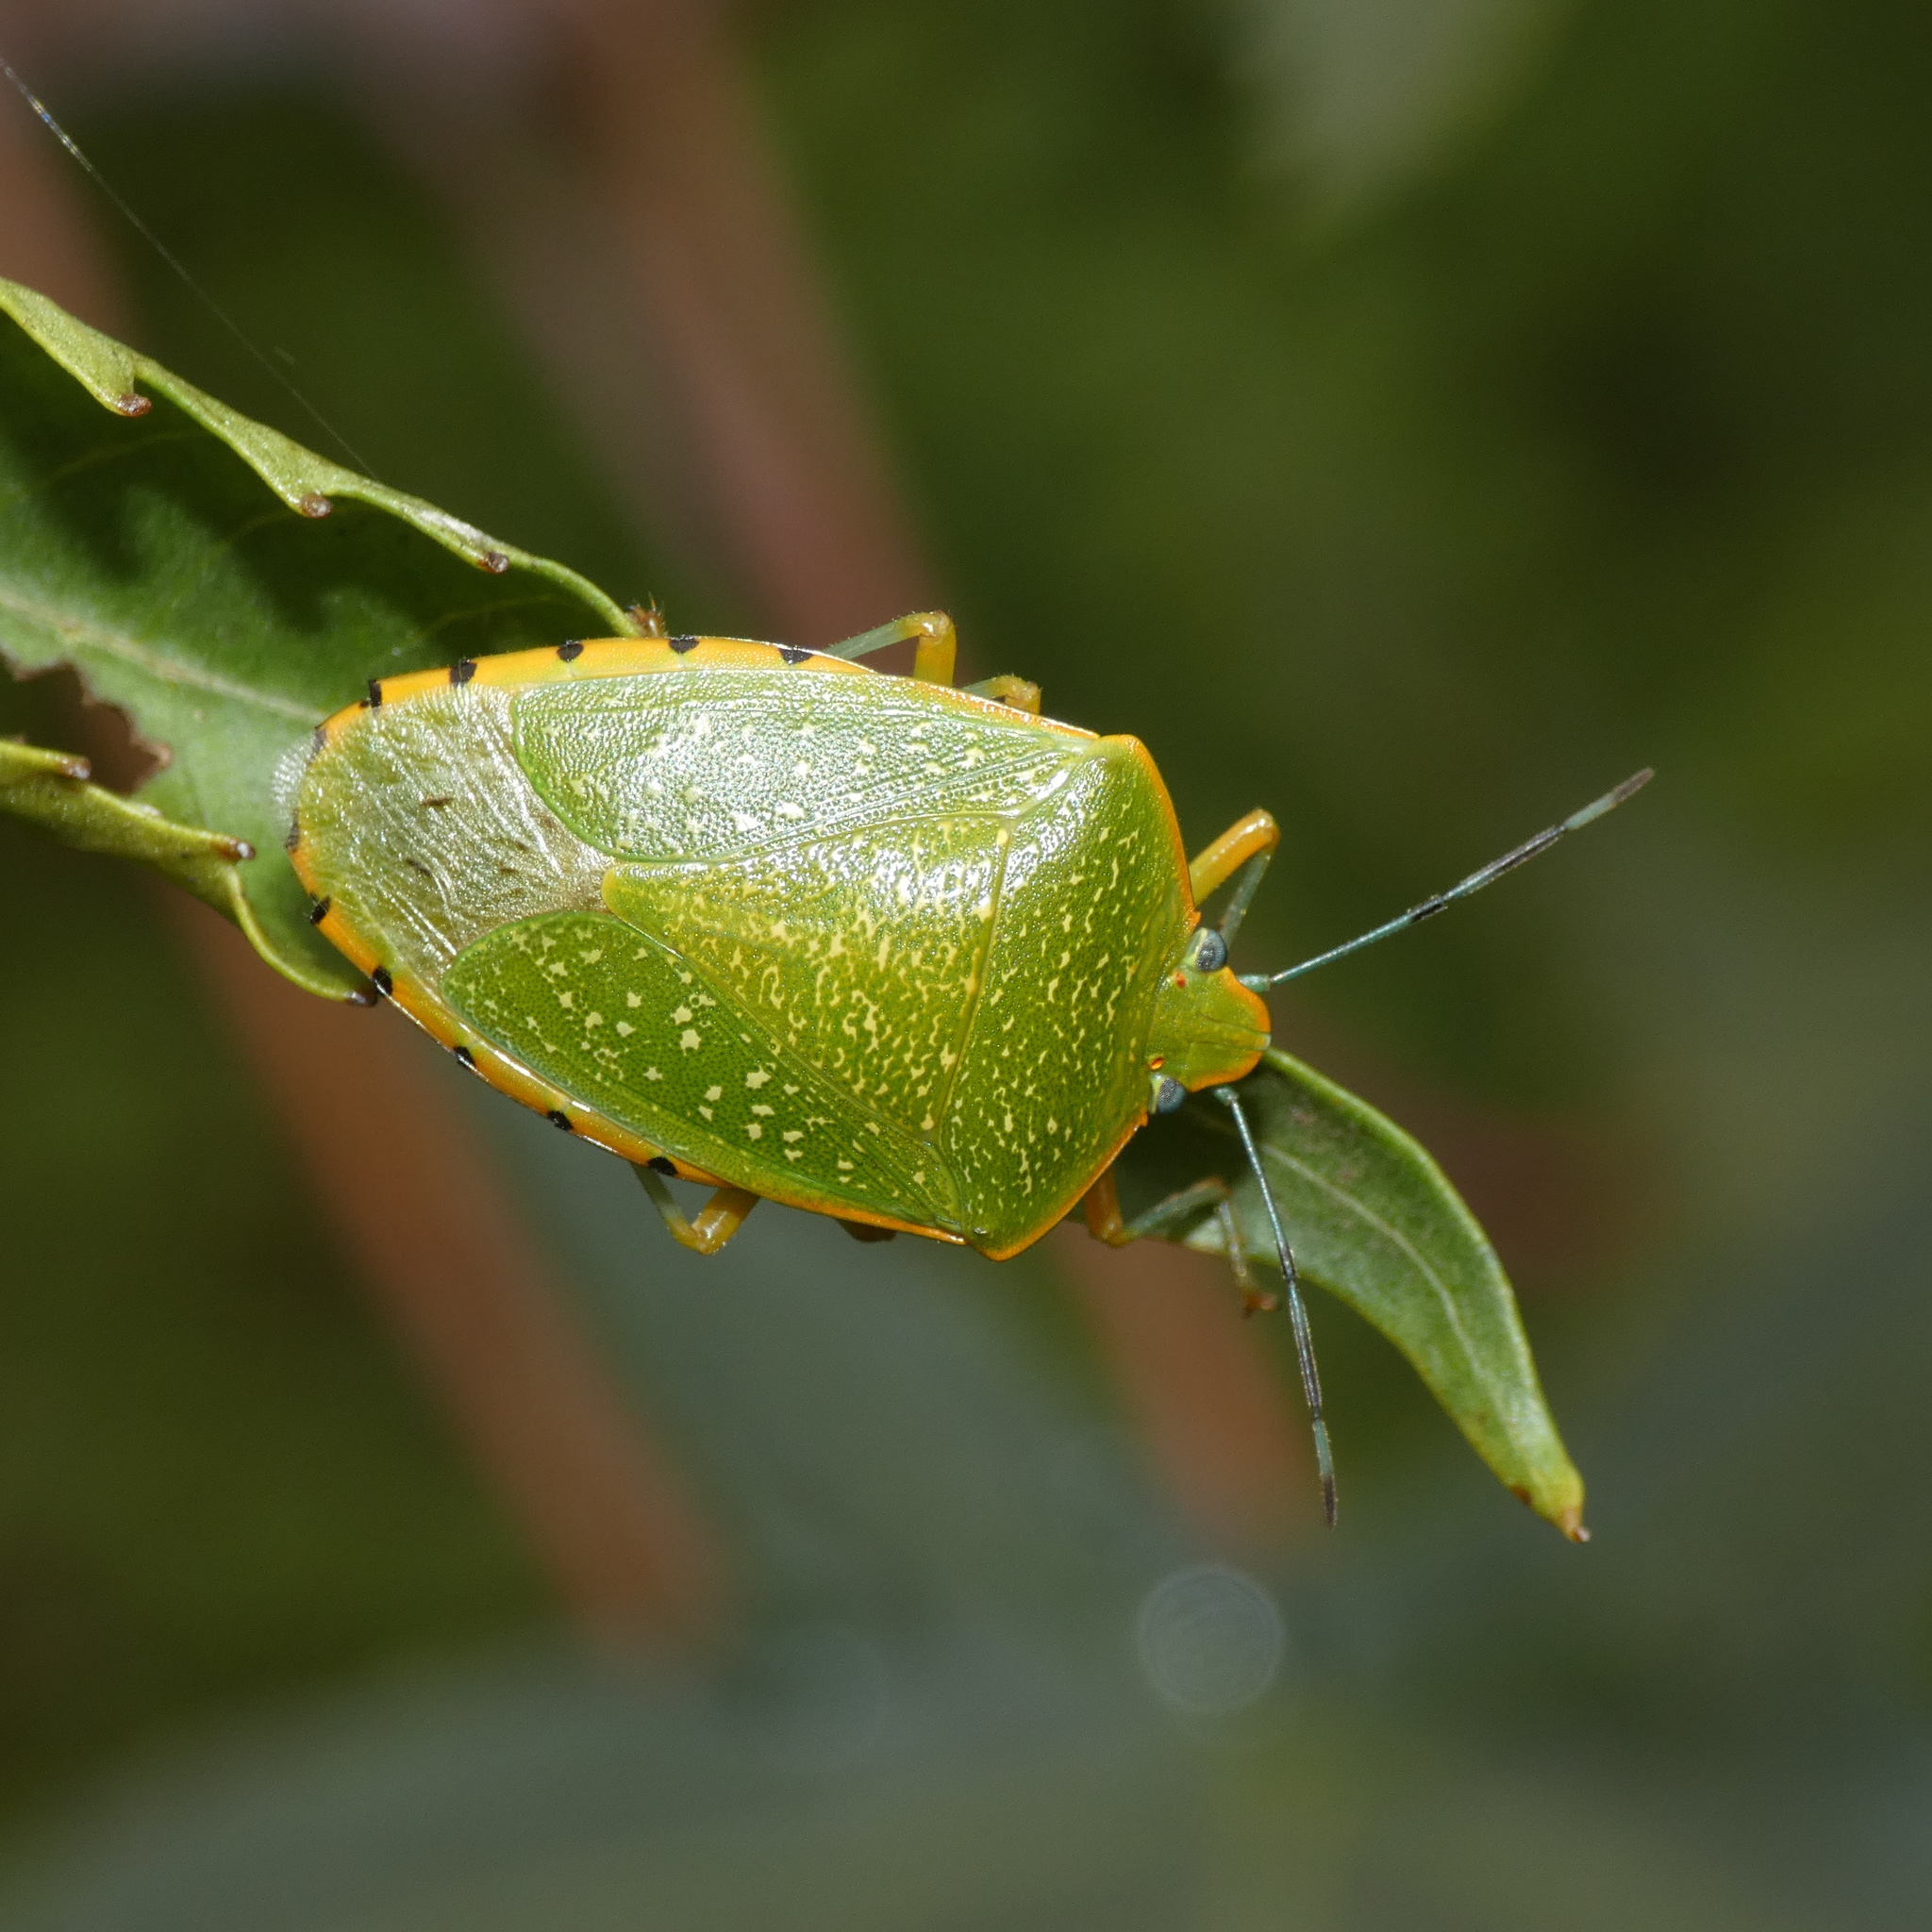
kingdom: Animalia
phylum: Arthropoda
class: Insecta
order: Hemiptera
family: Pentatomidae
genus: Chinavia
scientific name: Chinavia
